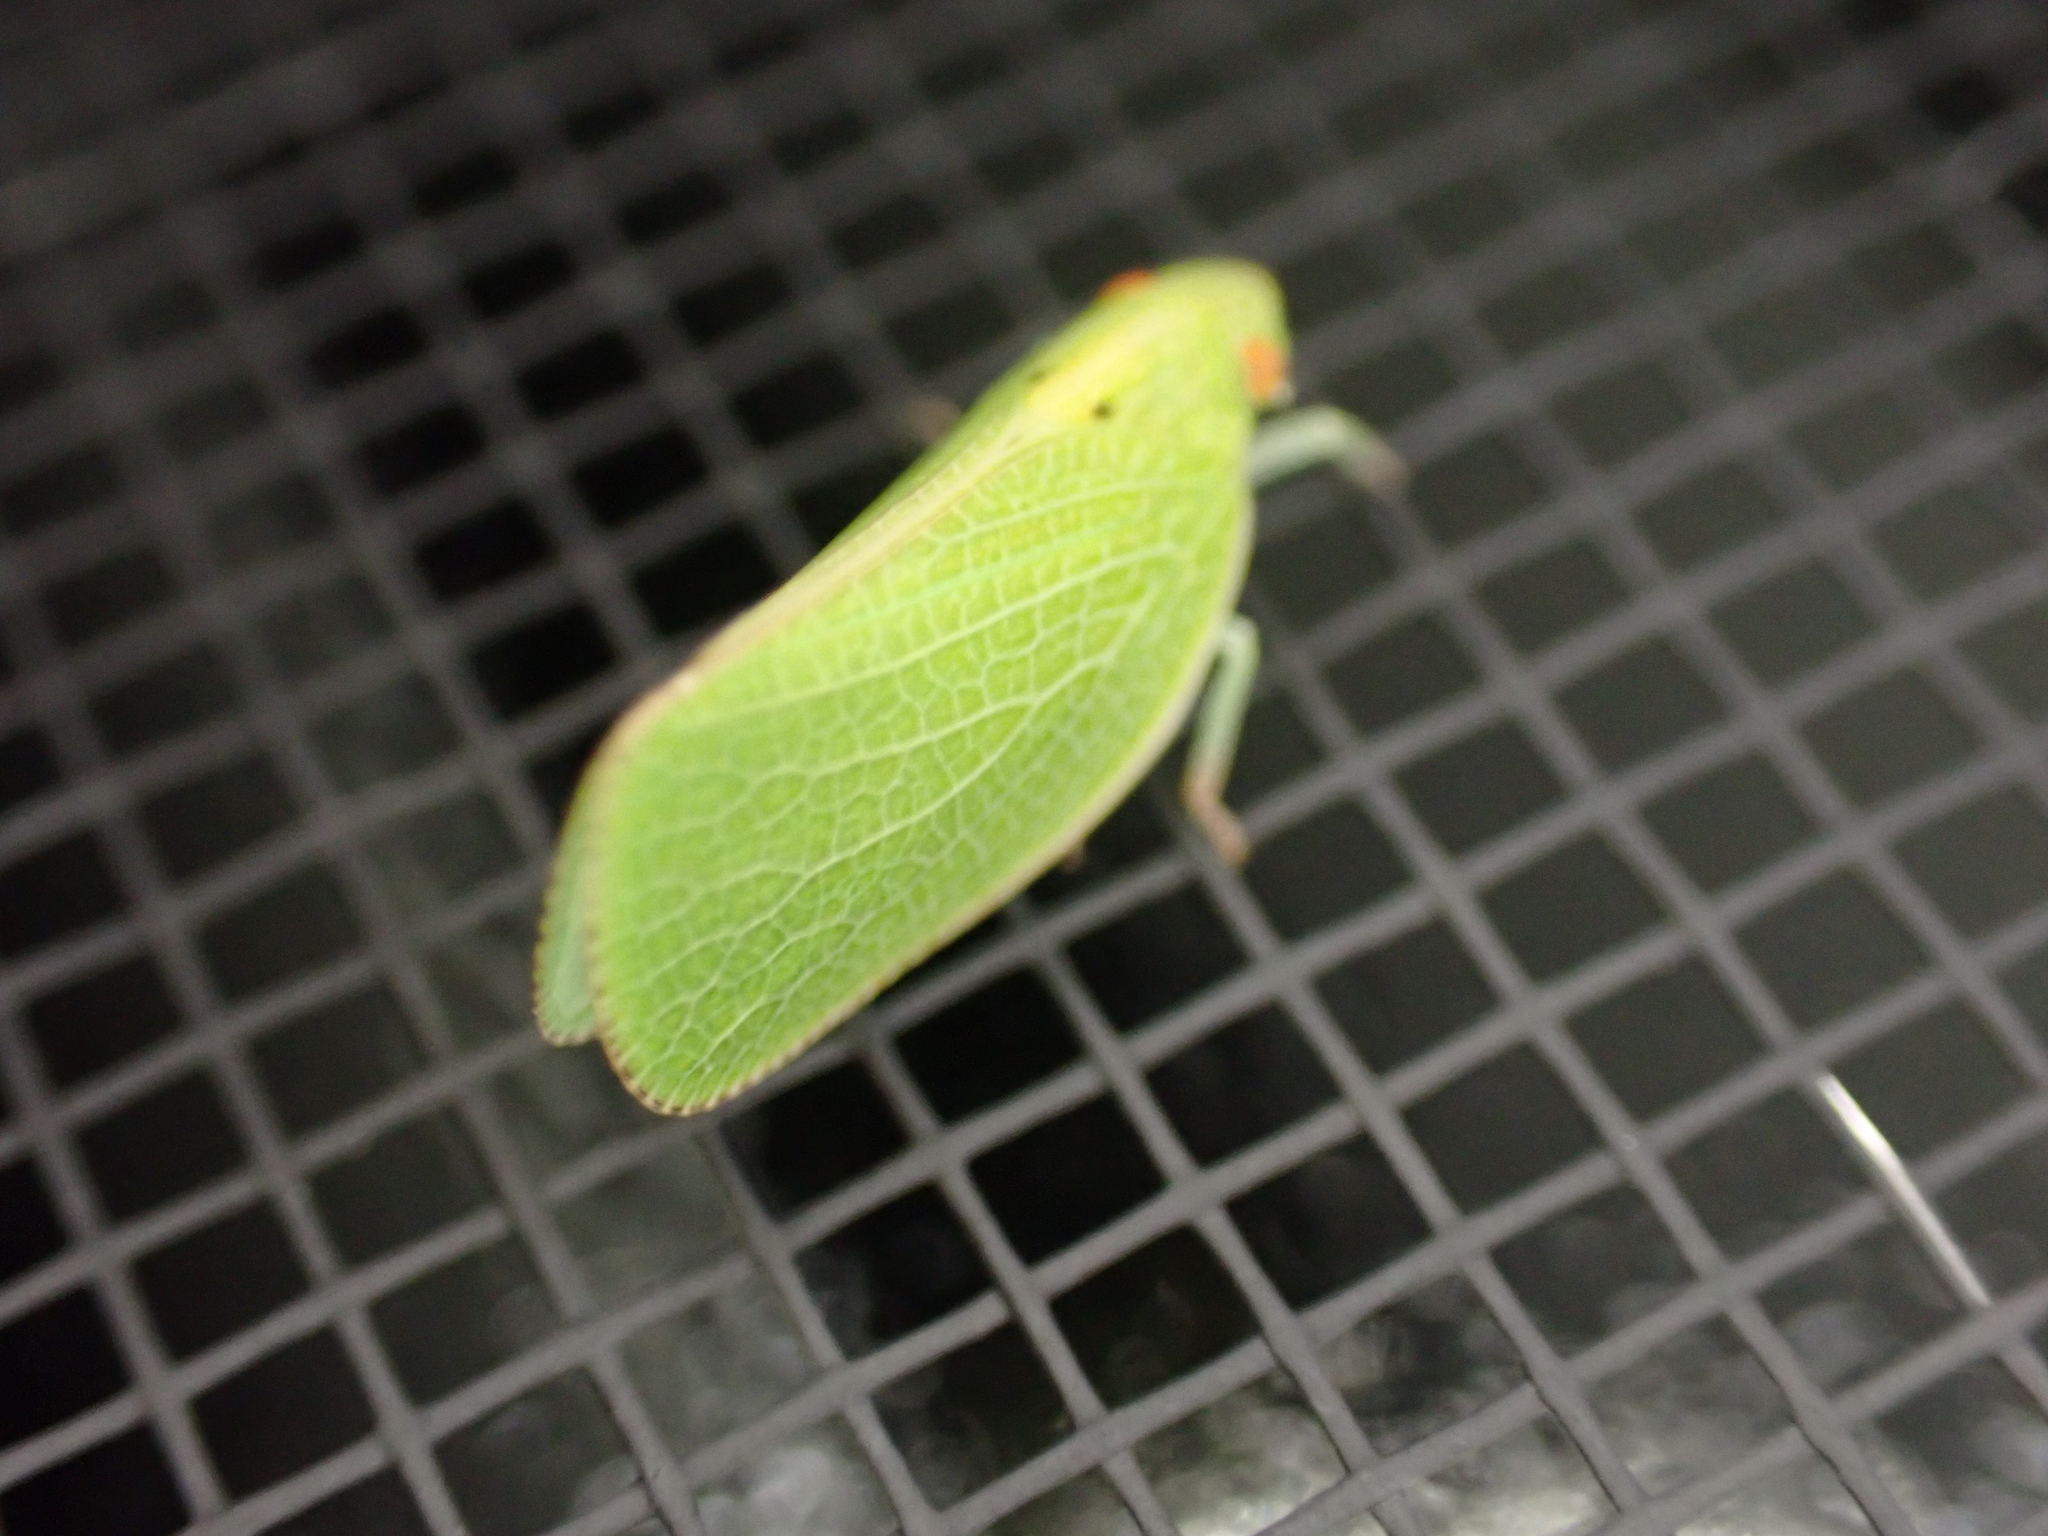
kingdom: Animalia
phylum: Arthropoda
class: Insecta
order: Hemiptera
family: Acanaloniidae
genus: Acanalonia
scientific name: Acanalonia conica
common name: Green cone-headed planthopper
